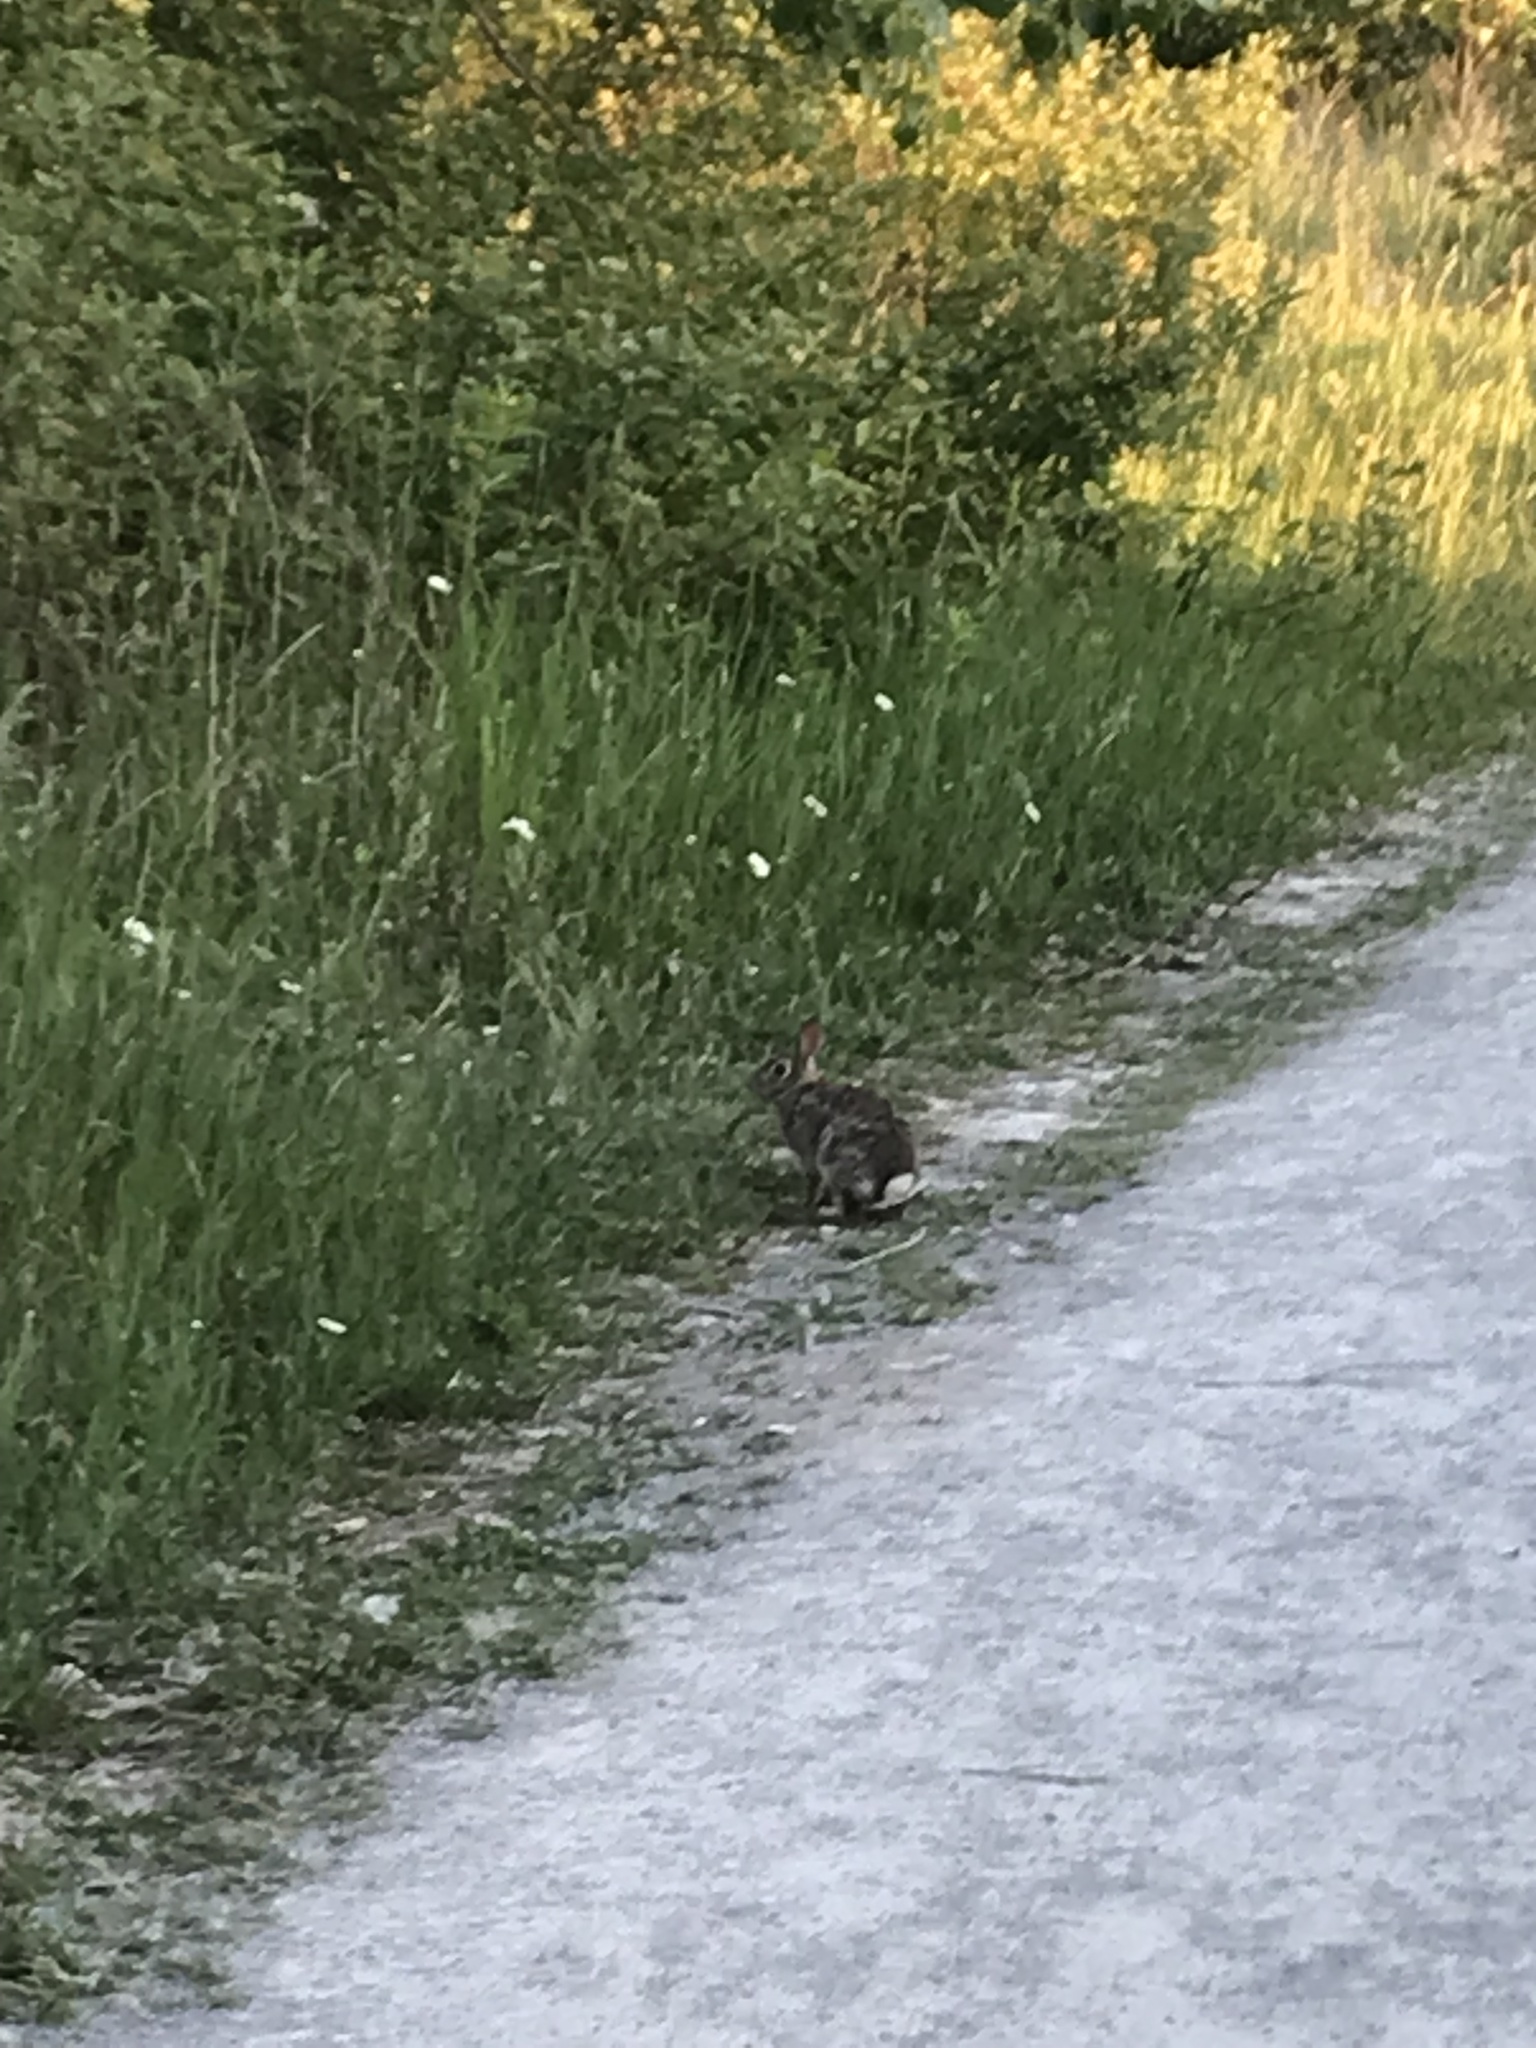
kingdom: Animalia
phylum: Chordata
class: Mammalia
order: Lagomorpha
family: Leporidae
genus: Sylvilagus
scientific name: Sylvilagus floridanus
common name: Eastern cottontail
